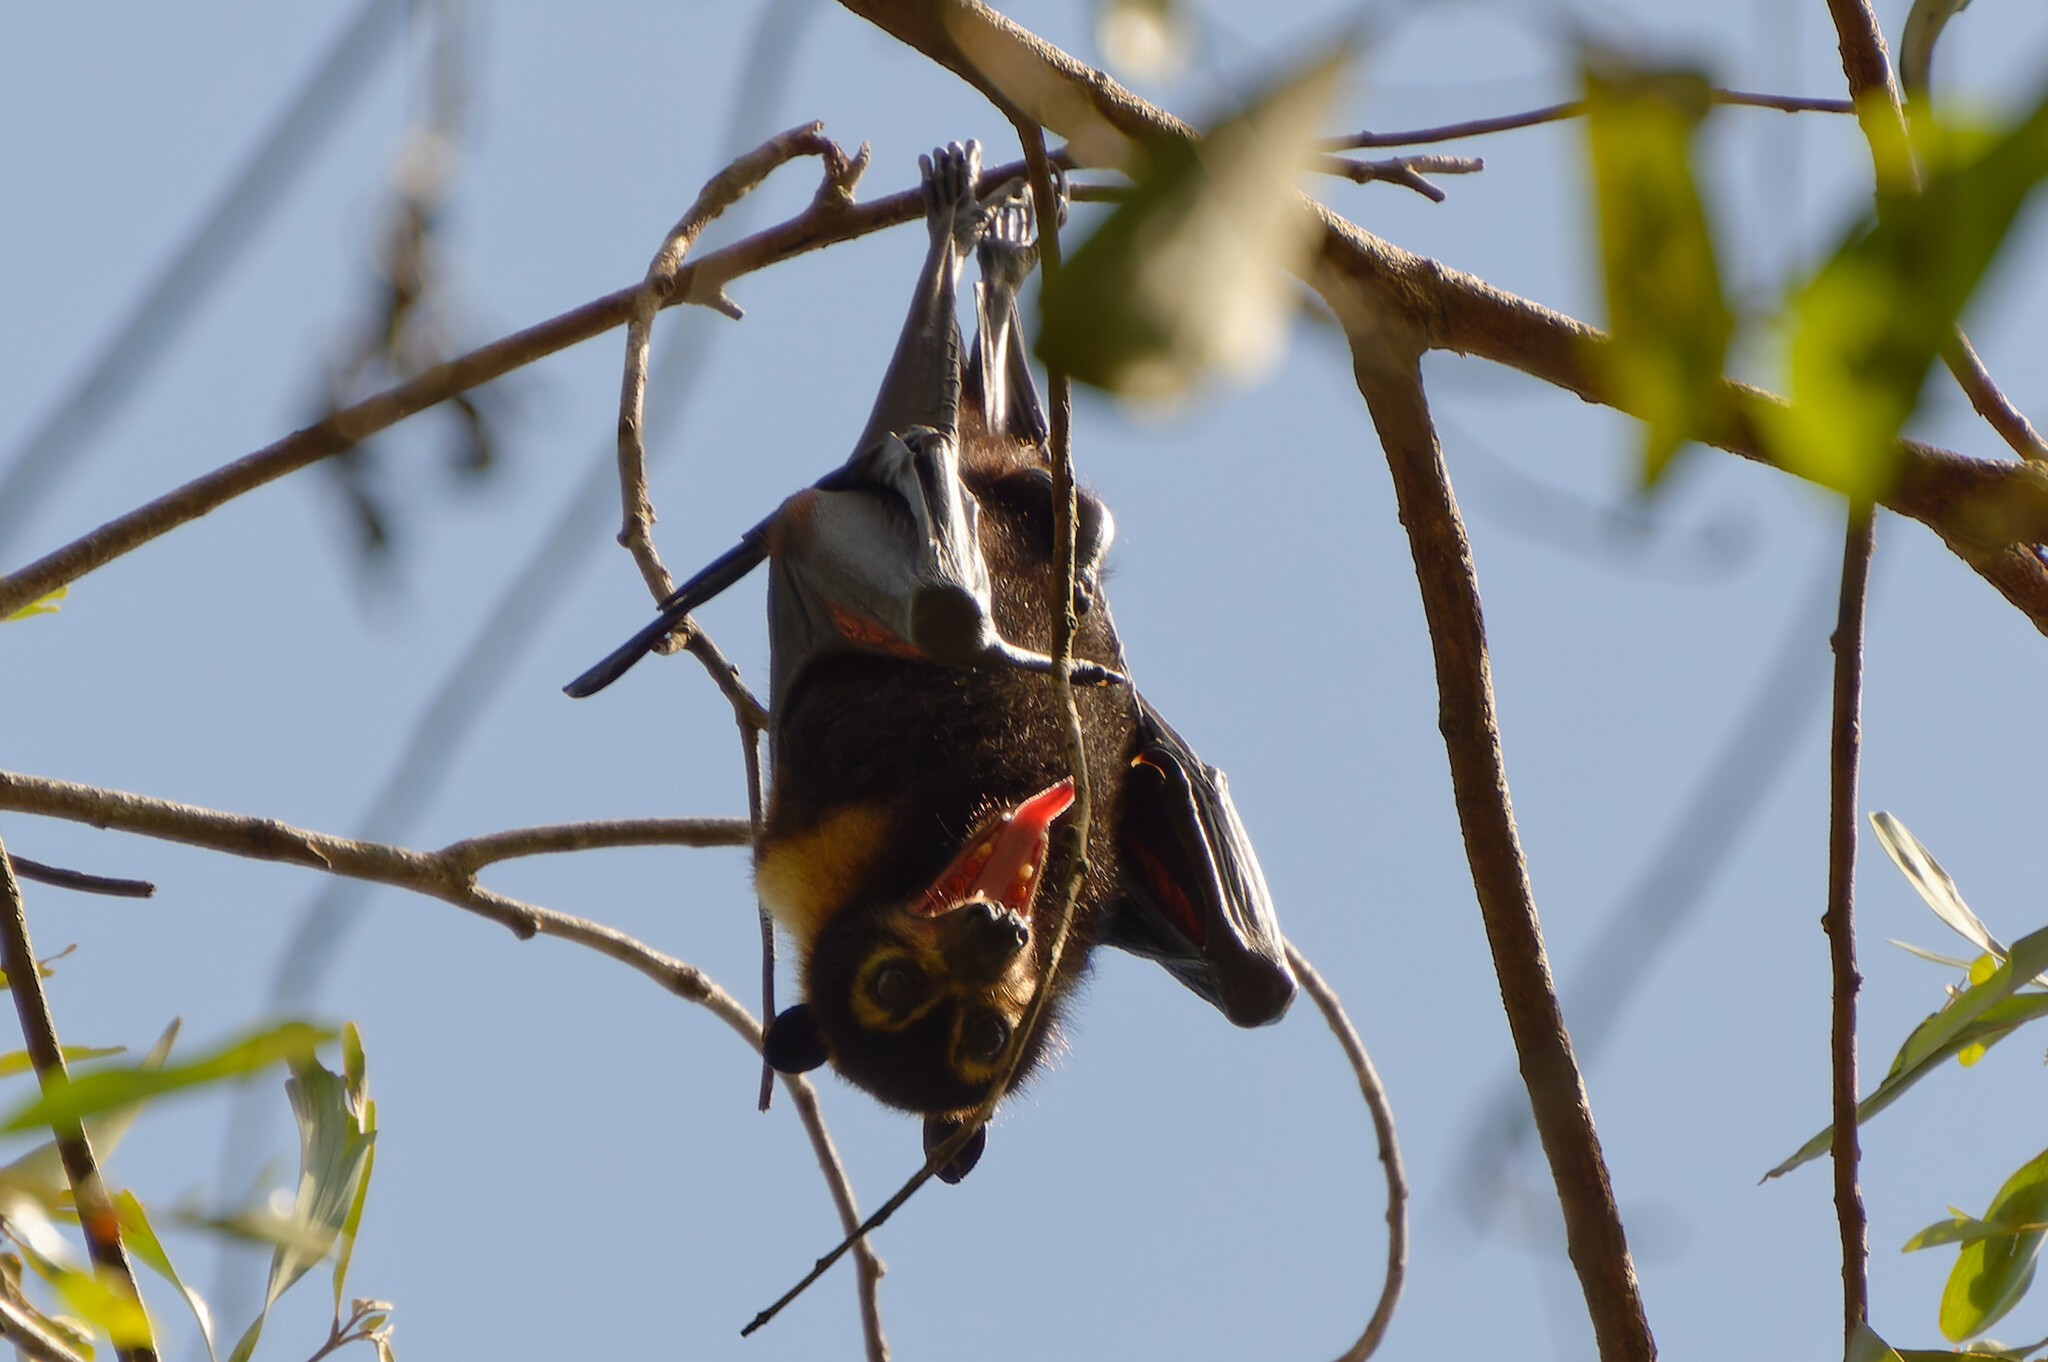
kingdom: Animalia
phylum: Chordata
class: Mammalia
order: Chiroptera
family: Pteropodidae
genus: Pteropus
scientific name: Pteropus conspicillatus
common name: Spectacled flying fox
